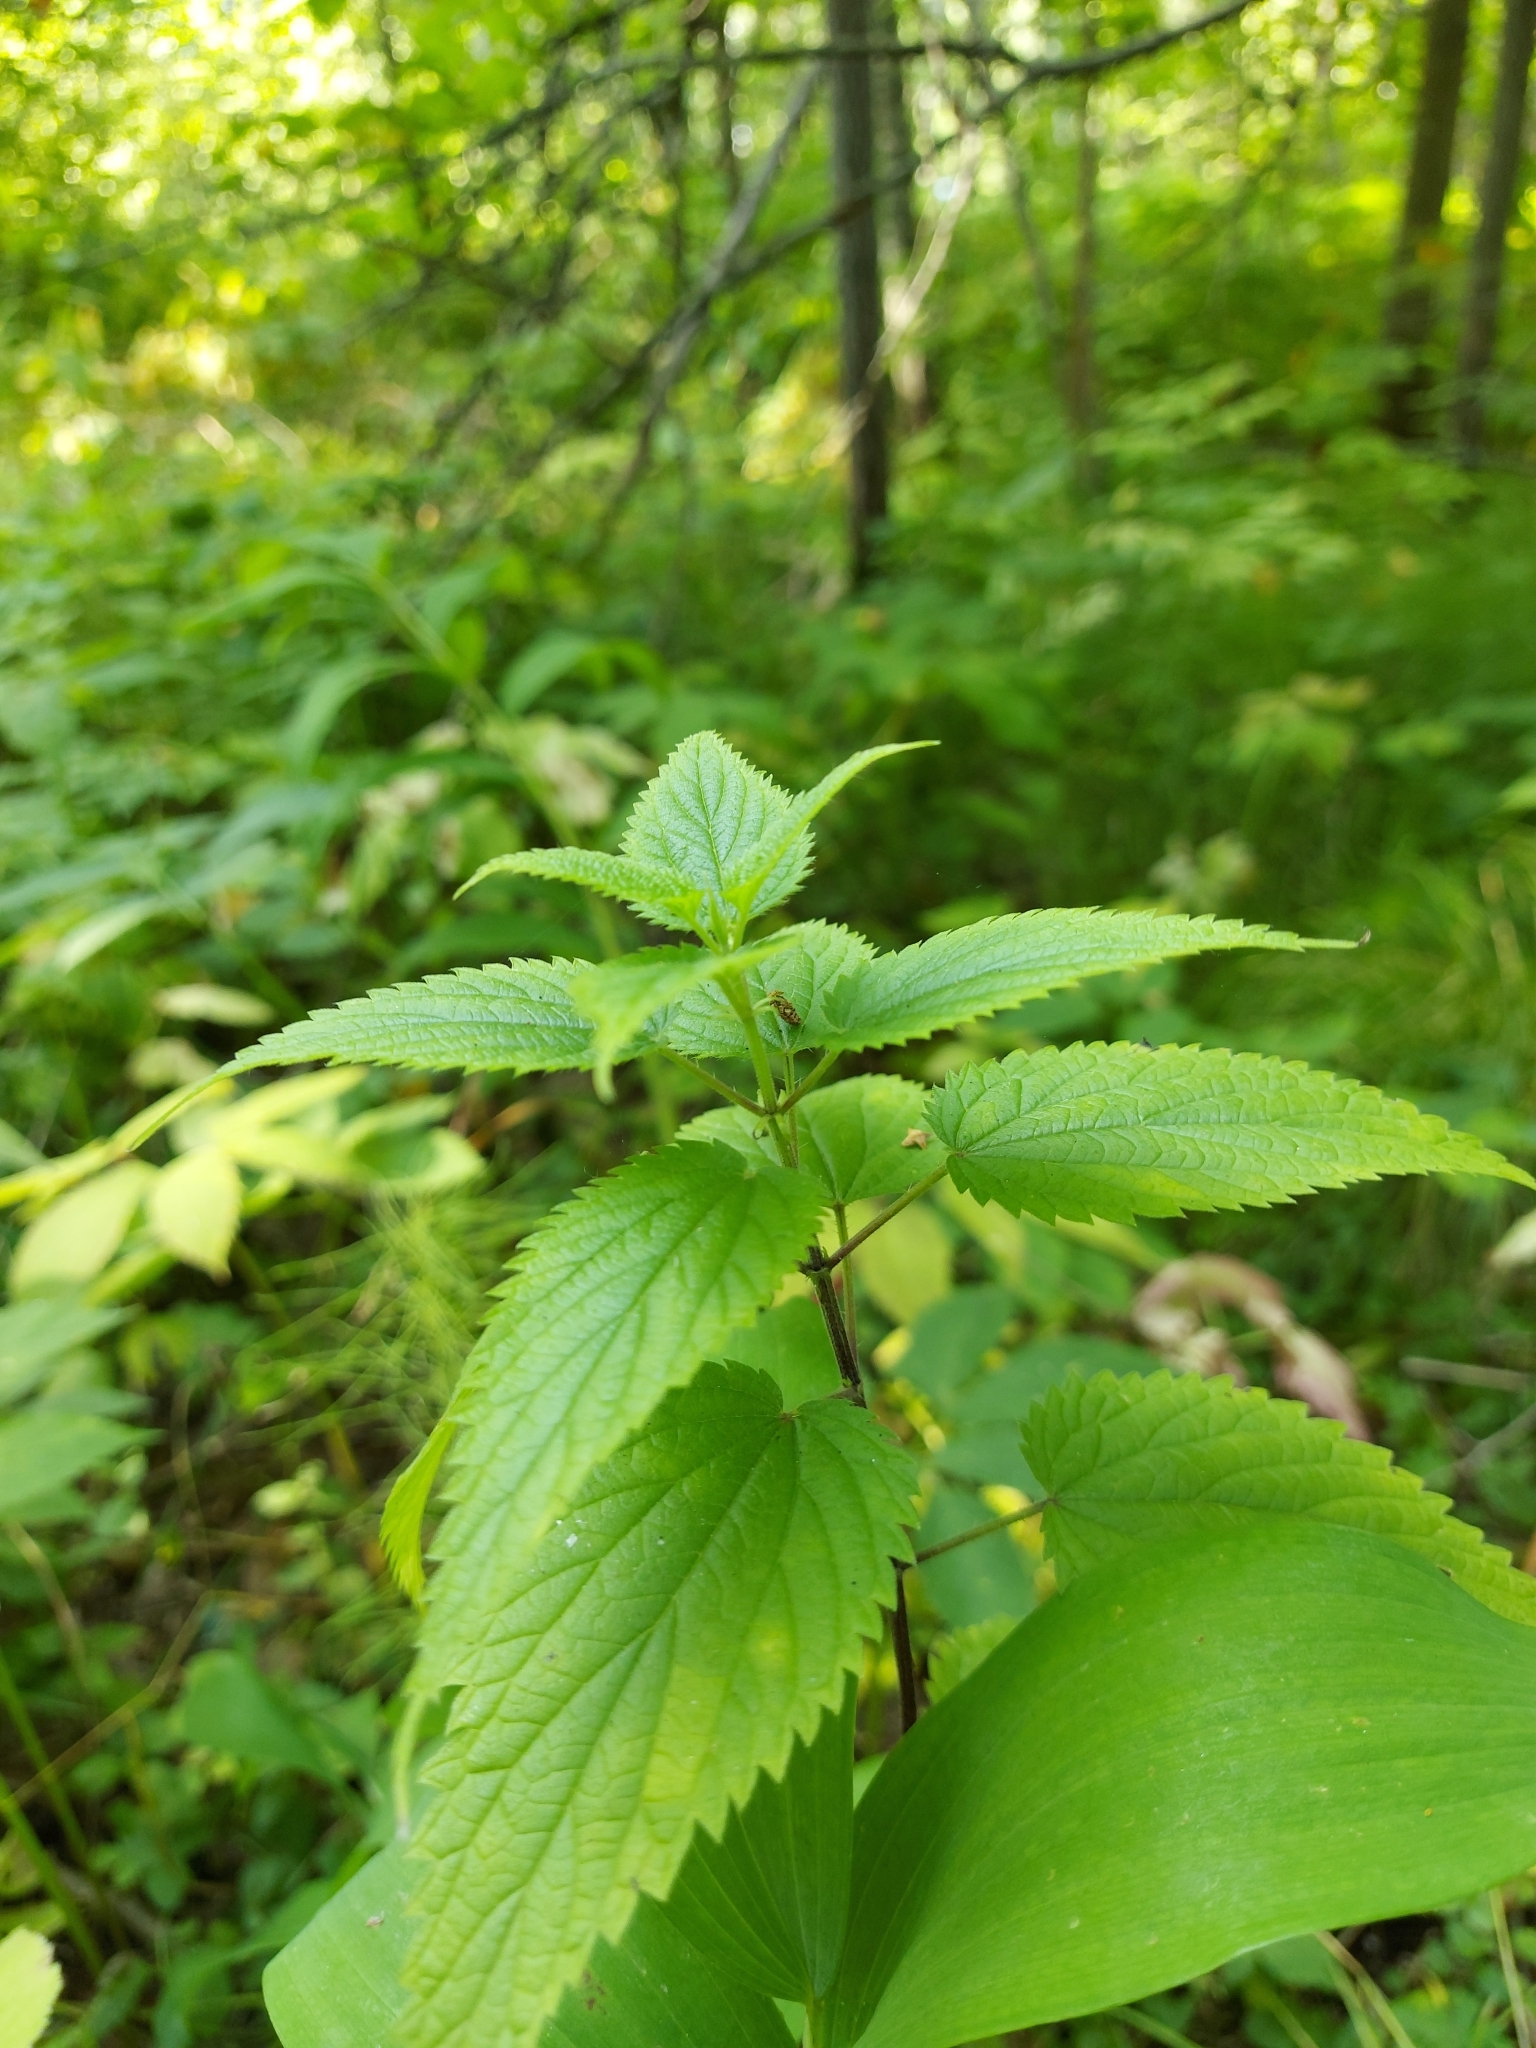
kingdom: Plantae
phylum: Tracheophyta
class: Magnoliopsida
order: Rosales
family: Urticaceae
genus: Urtica
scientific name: Urtica dioica
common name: Common nettle
